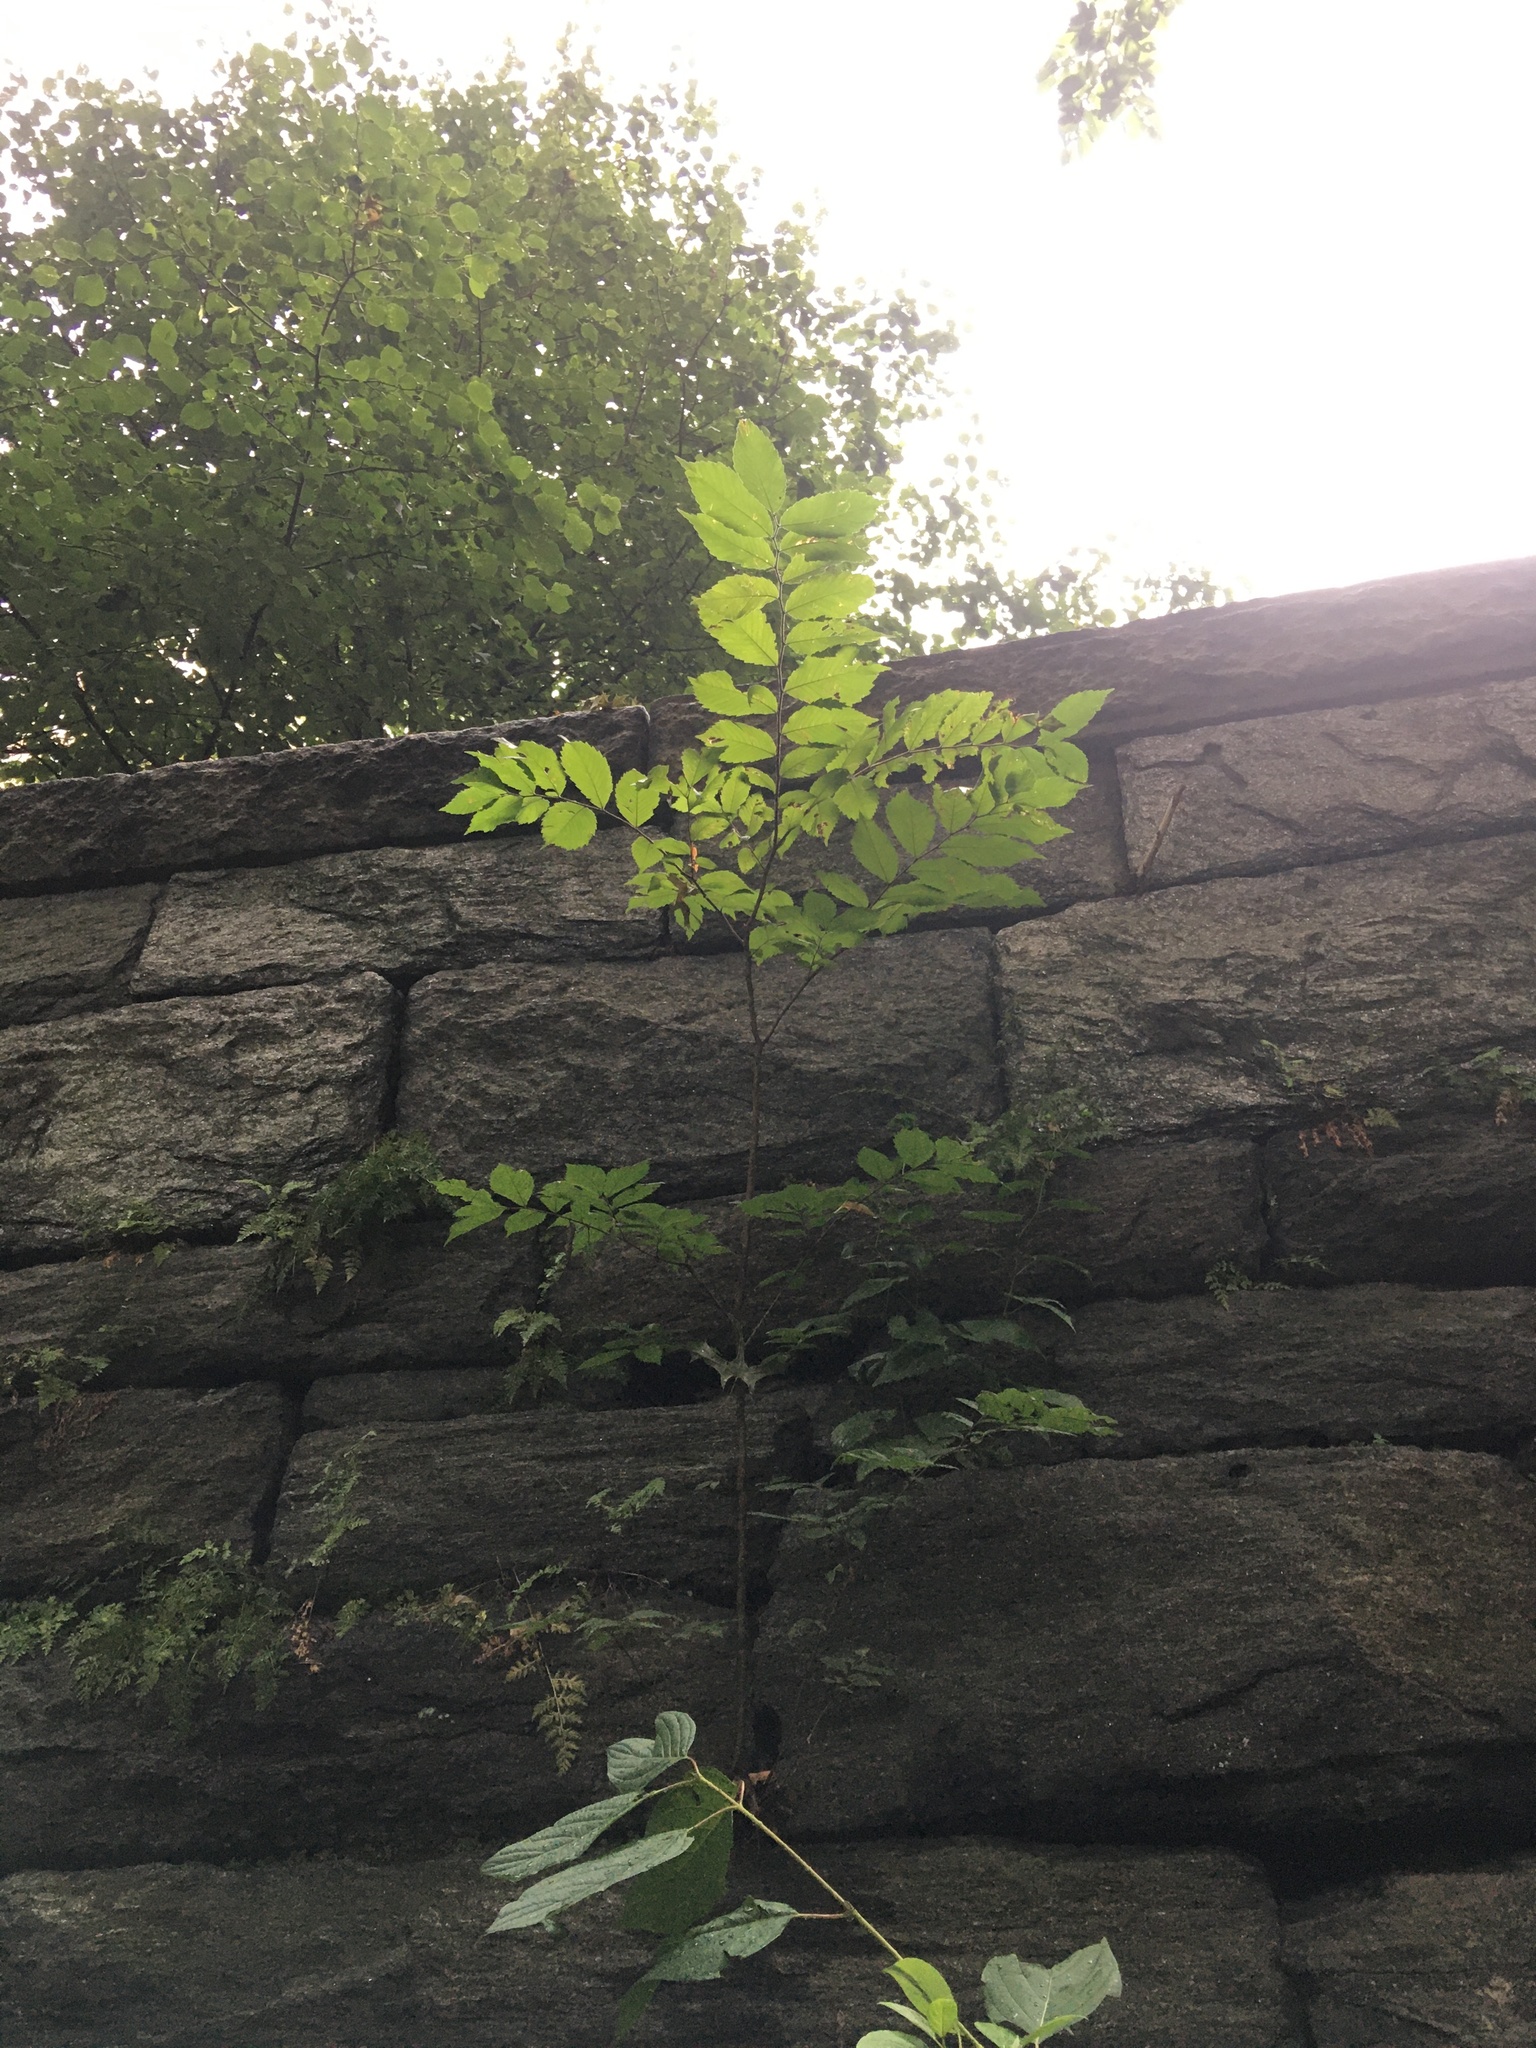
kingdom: Plantae
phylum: Tracheophyta
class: Magnoliopsida
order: Rosales
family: Ulmaceae
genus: Ulmus
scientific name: Ulmus americana
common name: American elm
